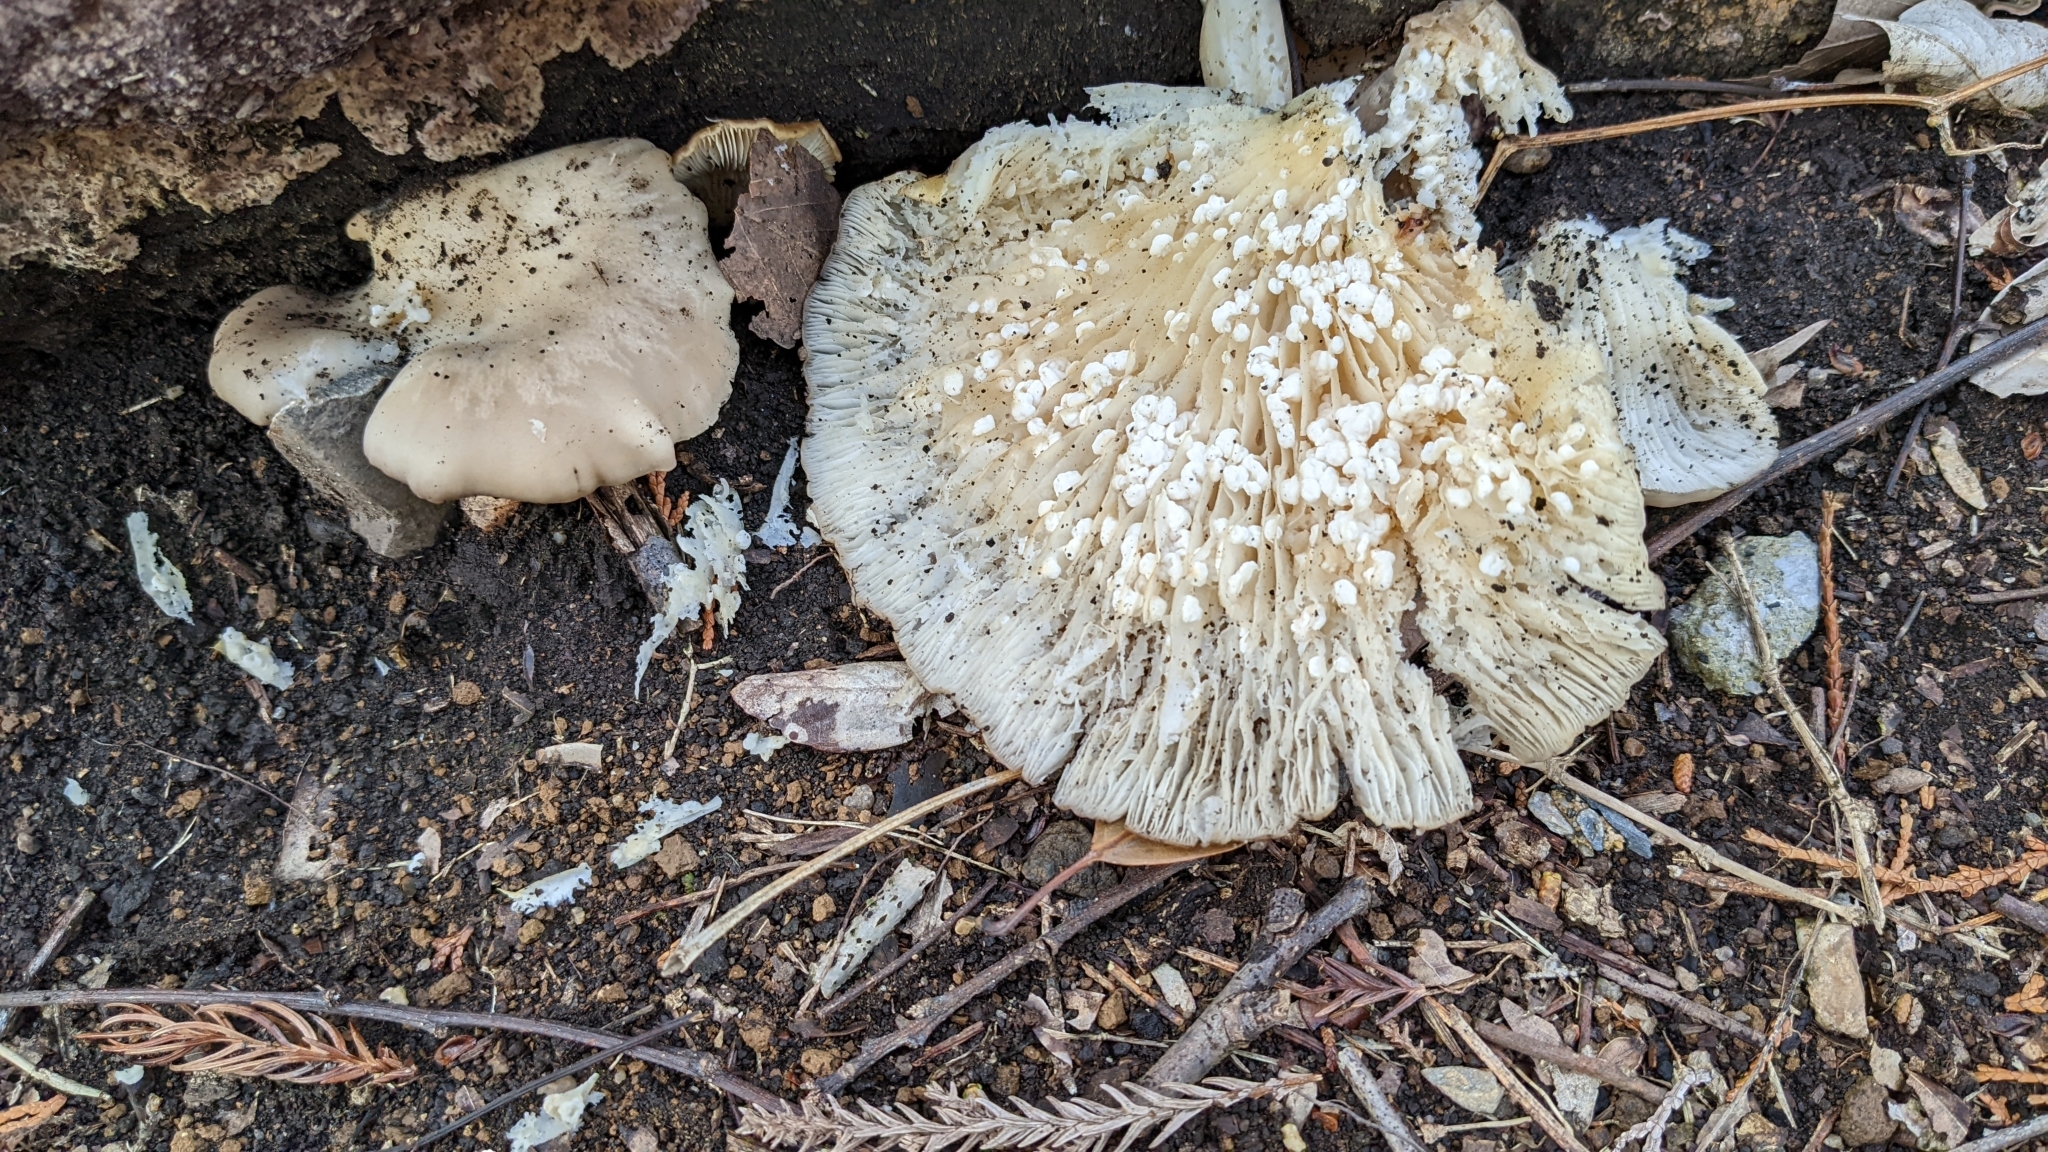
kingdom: Fungi
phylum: Basidiomycota
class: Agaricomycetes
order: Agaricales
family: Pleurotaceae
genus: Pleurotus
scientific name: Pleurotus ostreatus
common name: Oyster mushroom
